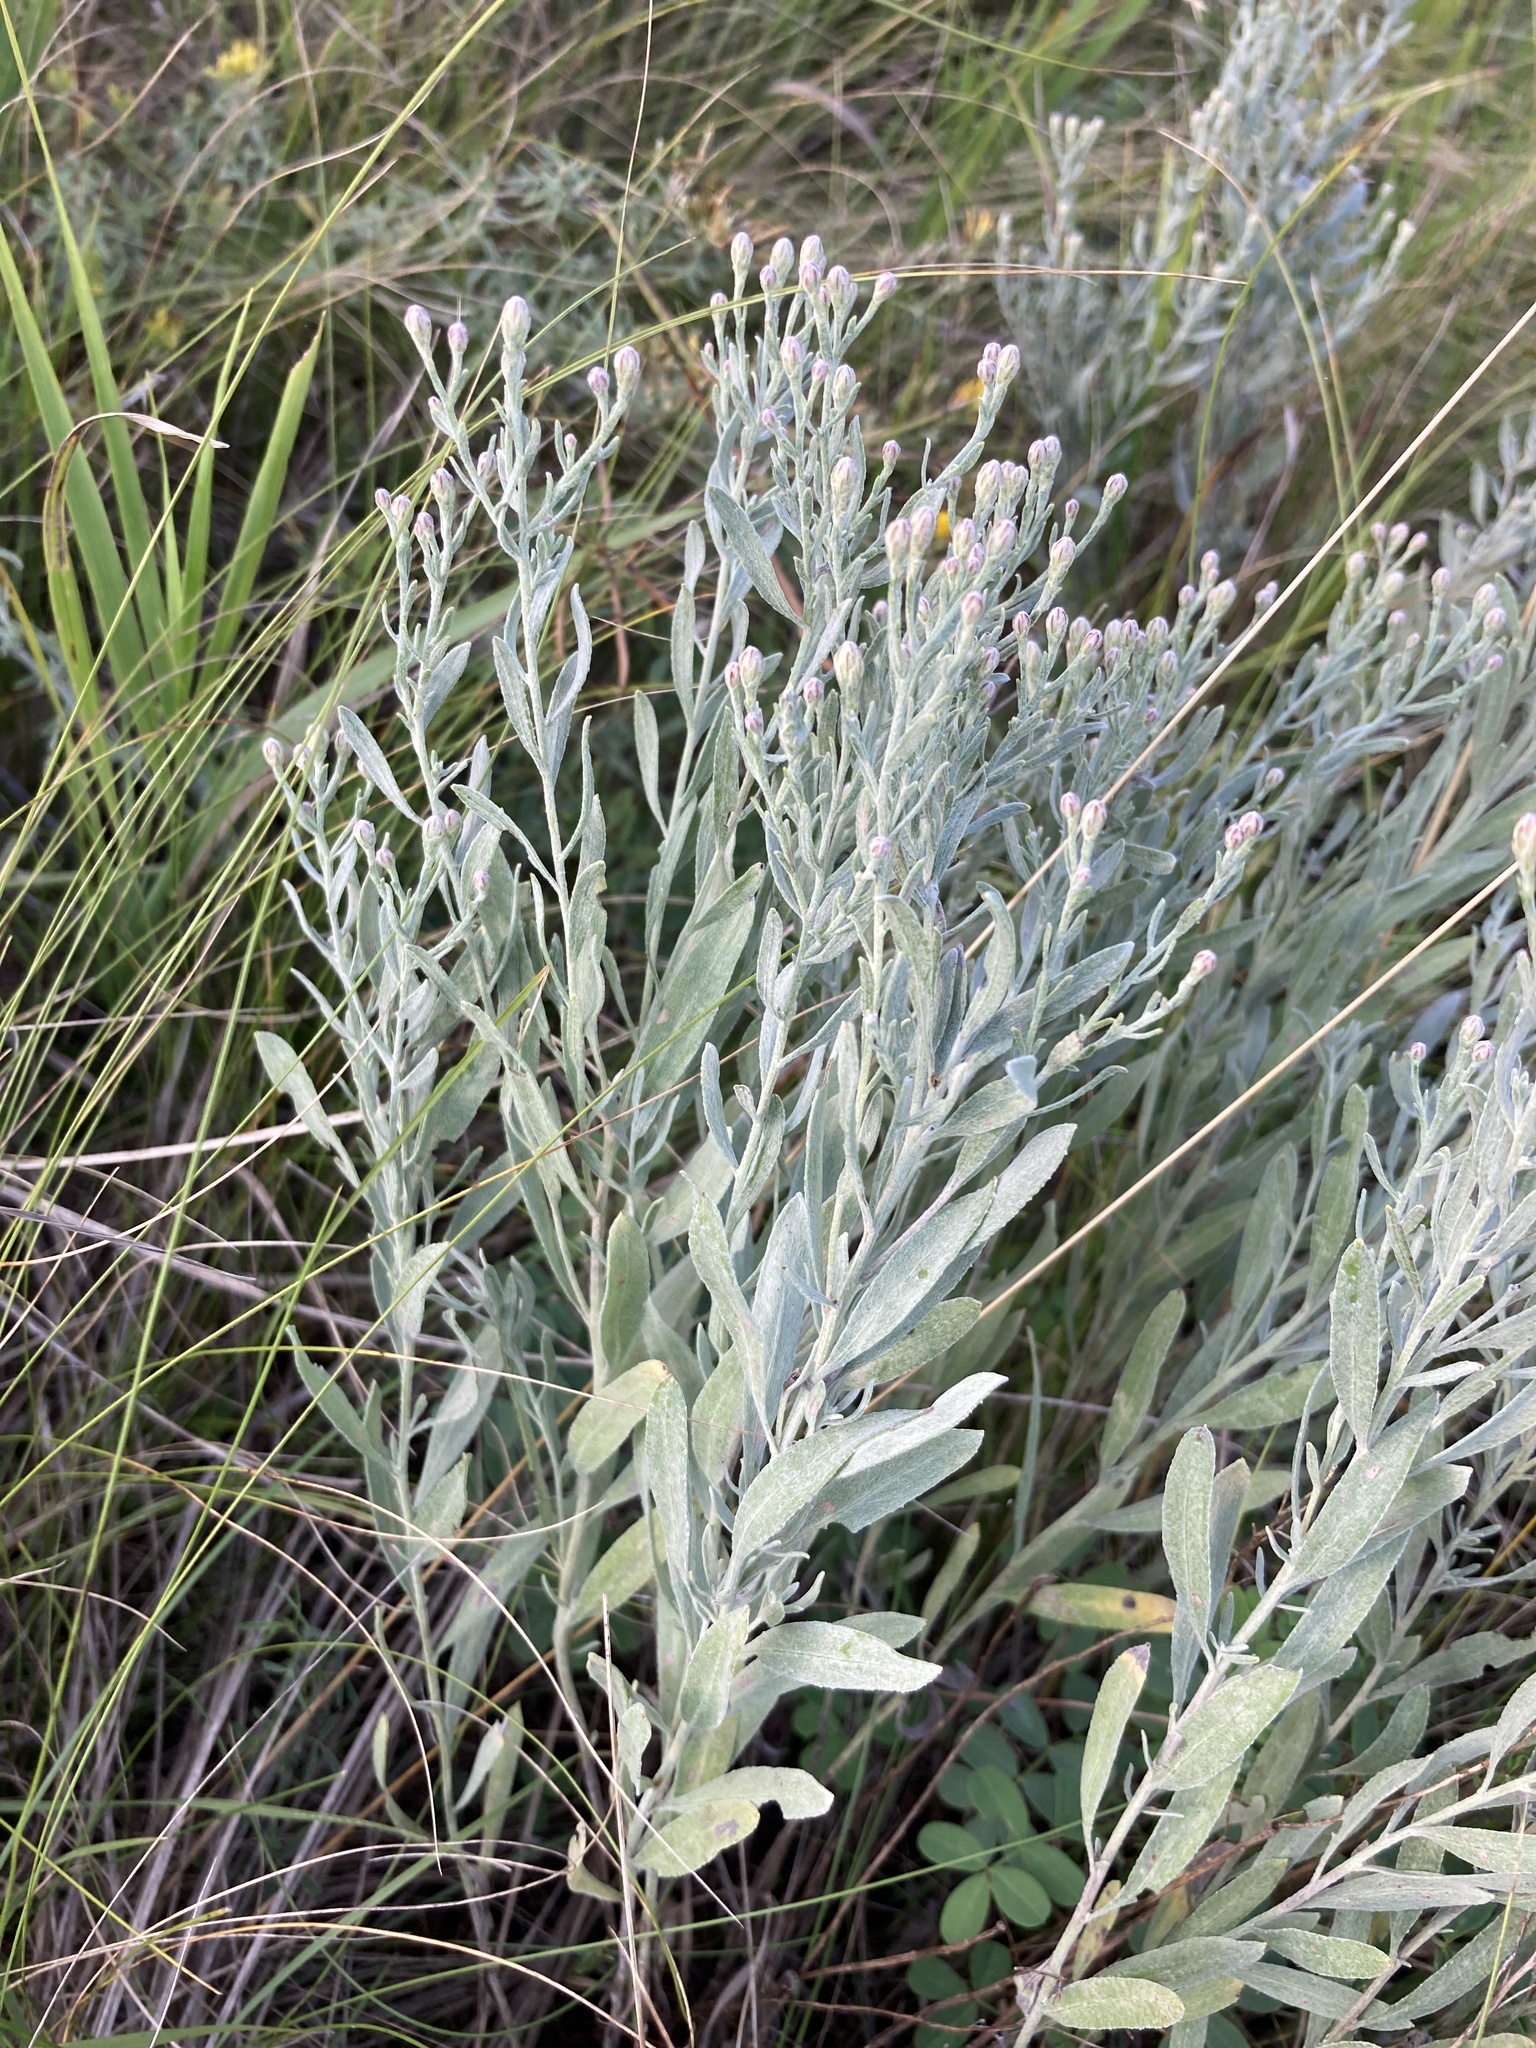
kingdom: Plantae
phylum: Tracheophyta
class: Magnoliopsida
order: Asterales
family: Asteraceae
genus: Galatella
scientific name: Galatella villosa
